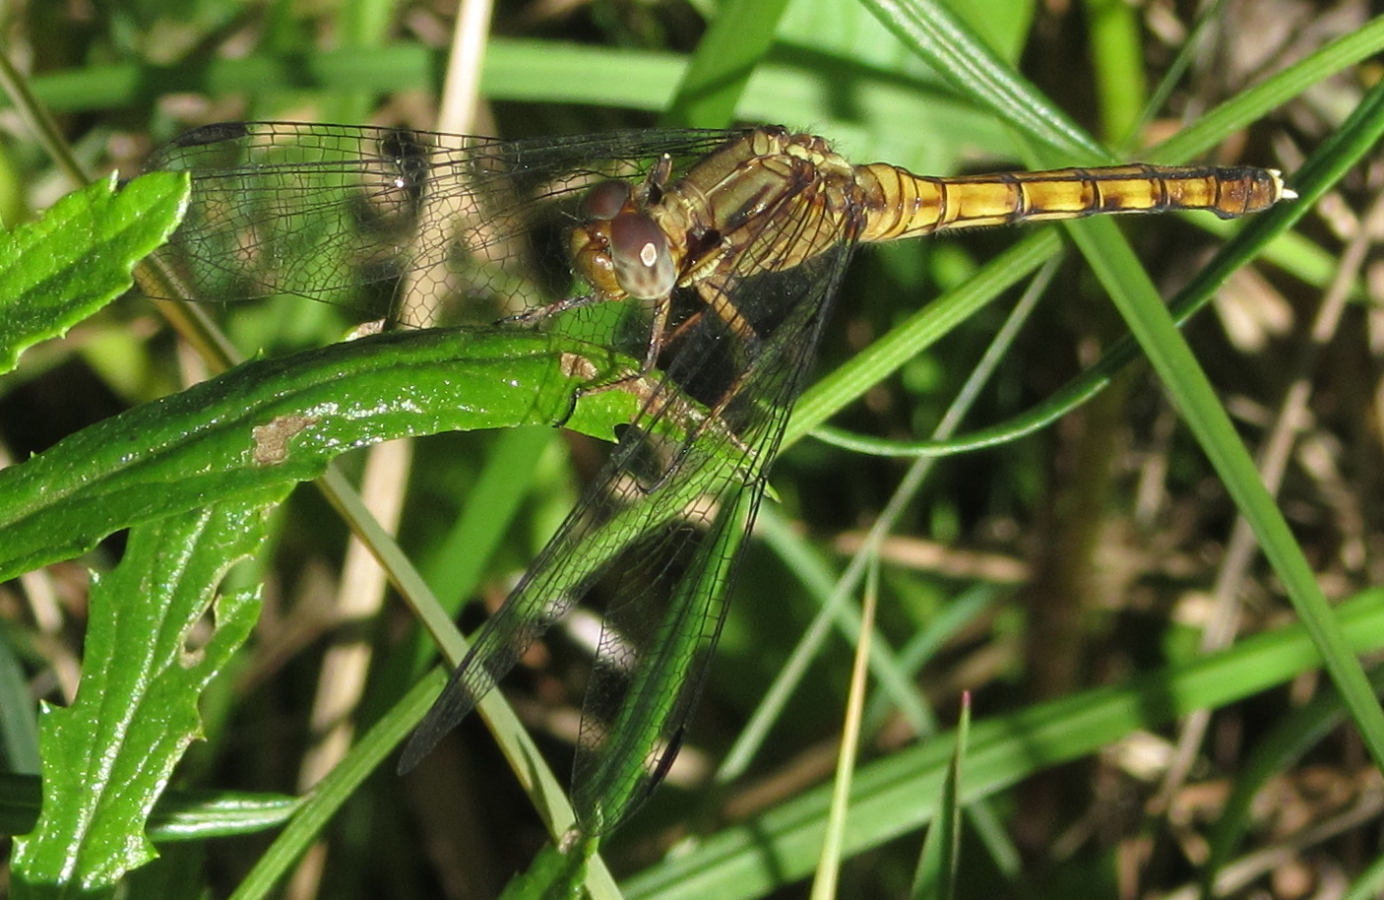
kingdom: Animalia
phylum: Arthropoda
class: Insecta
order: Odonata
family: Libellulidae
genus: Orthetrum
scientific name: Orthetrum julia
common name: Julia skimmer
